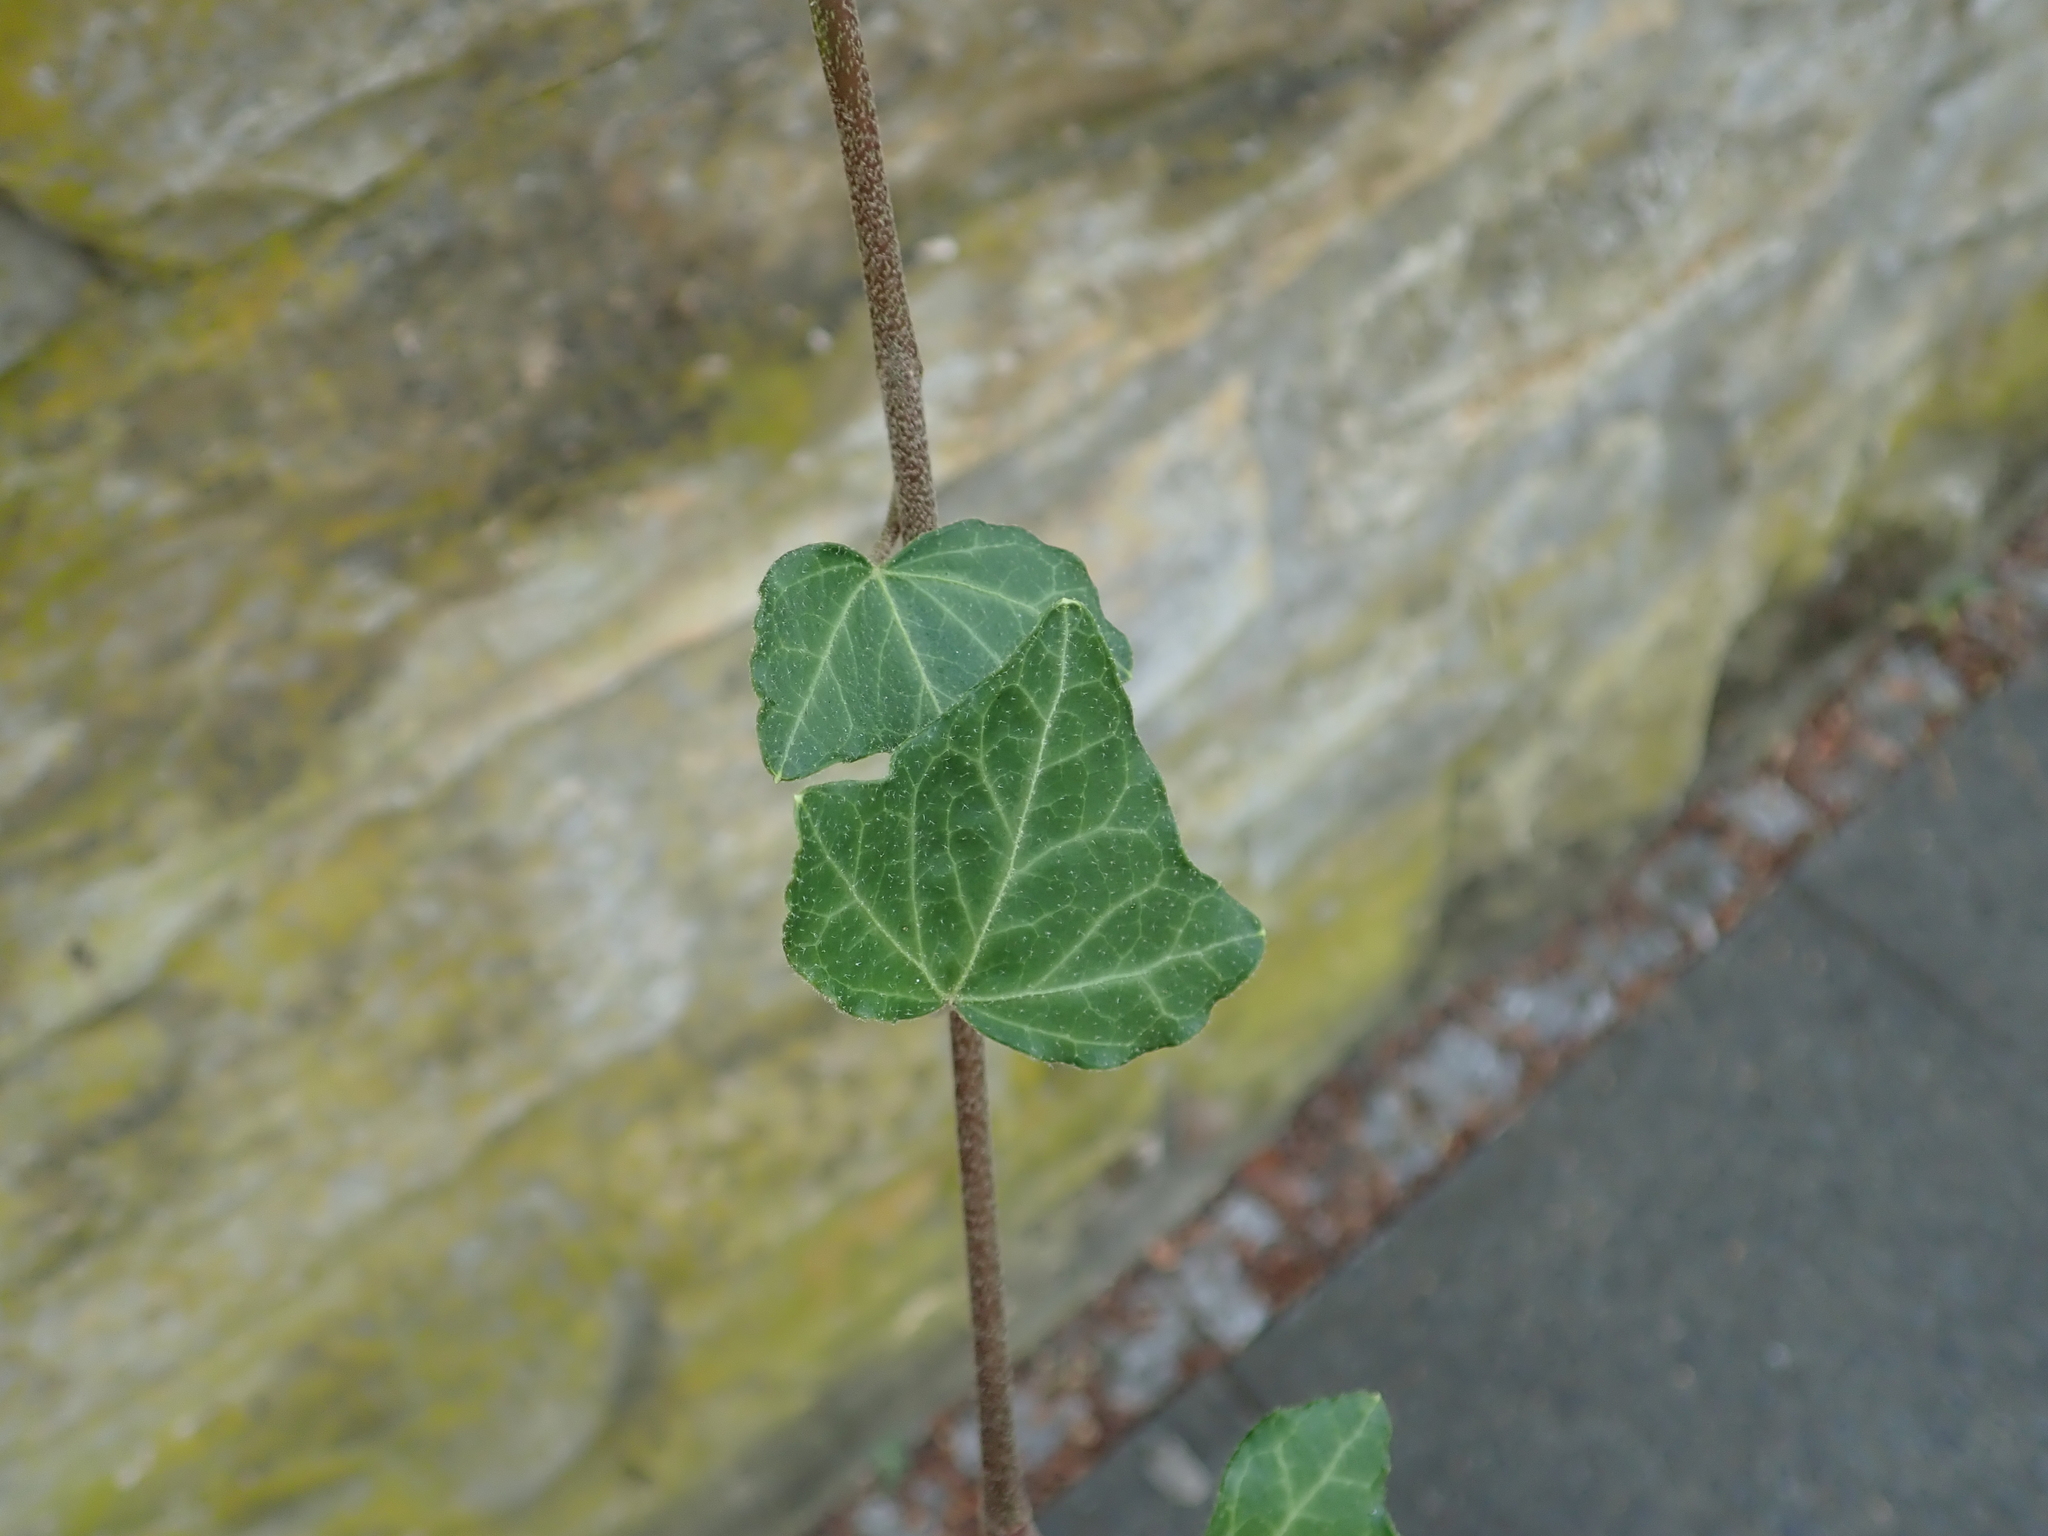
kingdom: Plantae
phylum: Tracheophyta
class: Magnoliopsida
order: Apiales
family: Araliaceae
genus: Hedera
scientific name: Hedera helix
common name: Ivy
